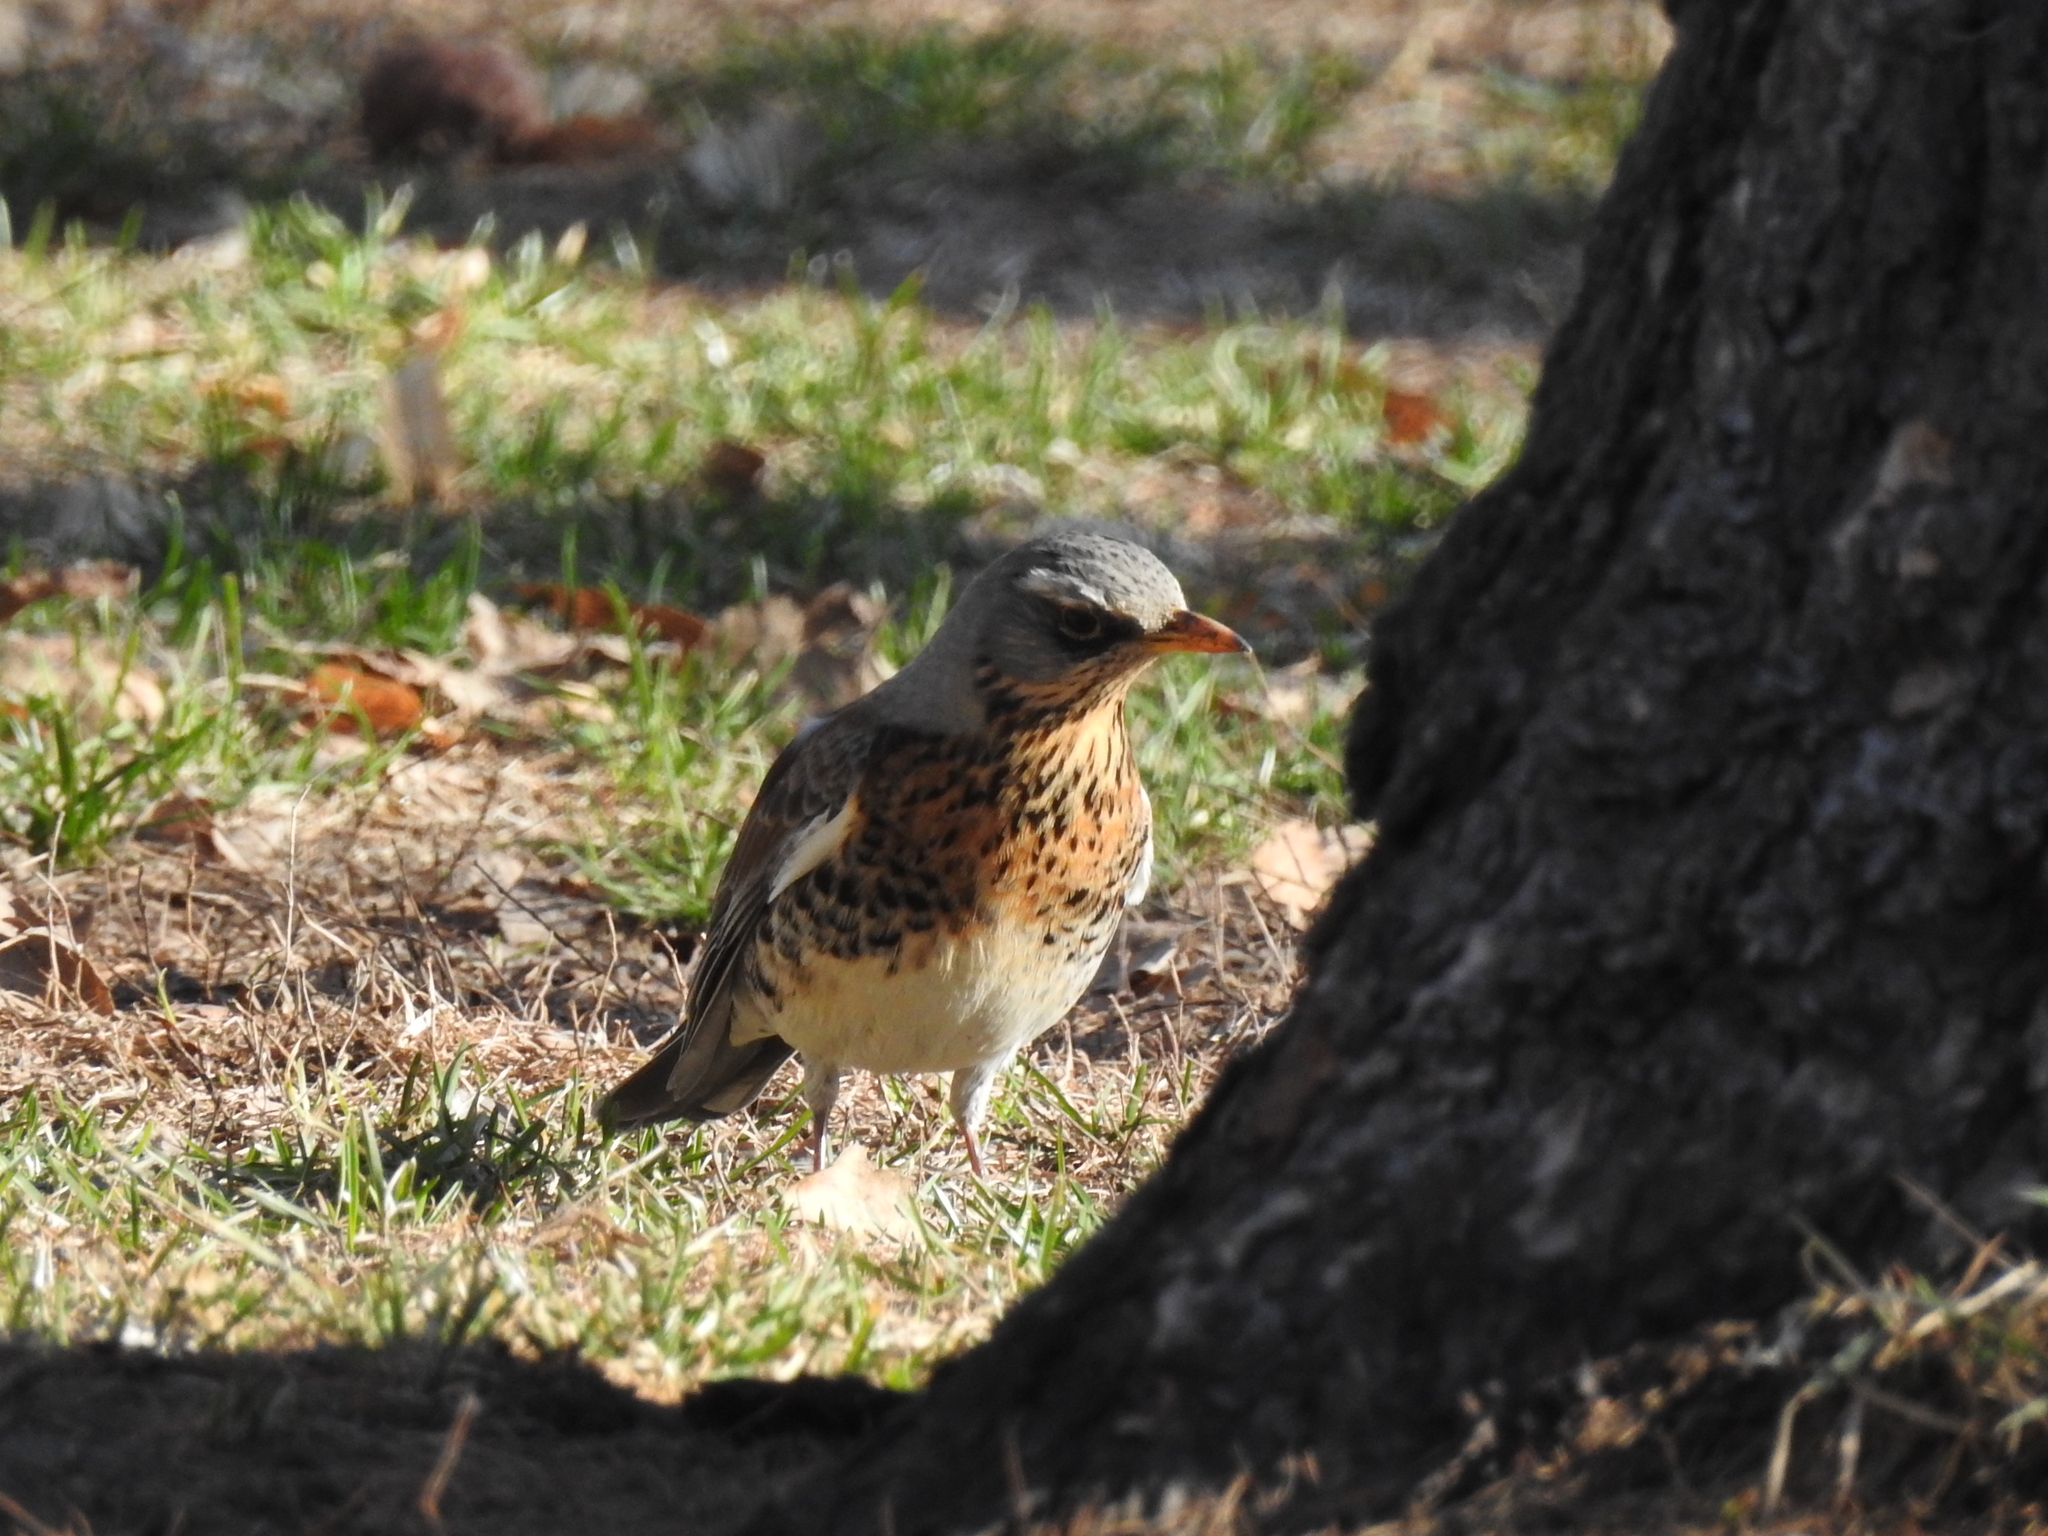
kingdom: Animalia
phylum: Chordata
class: Aves
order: Passeriformes
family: Turdidae
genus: Turdus
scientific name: Turdus pilaris
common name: Fieldfare
